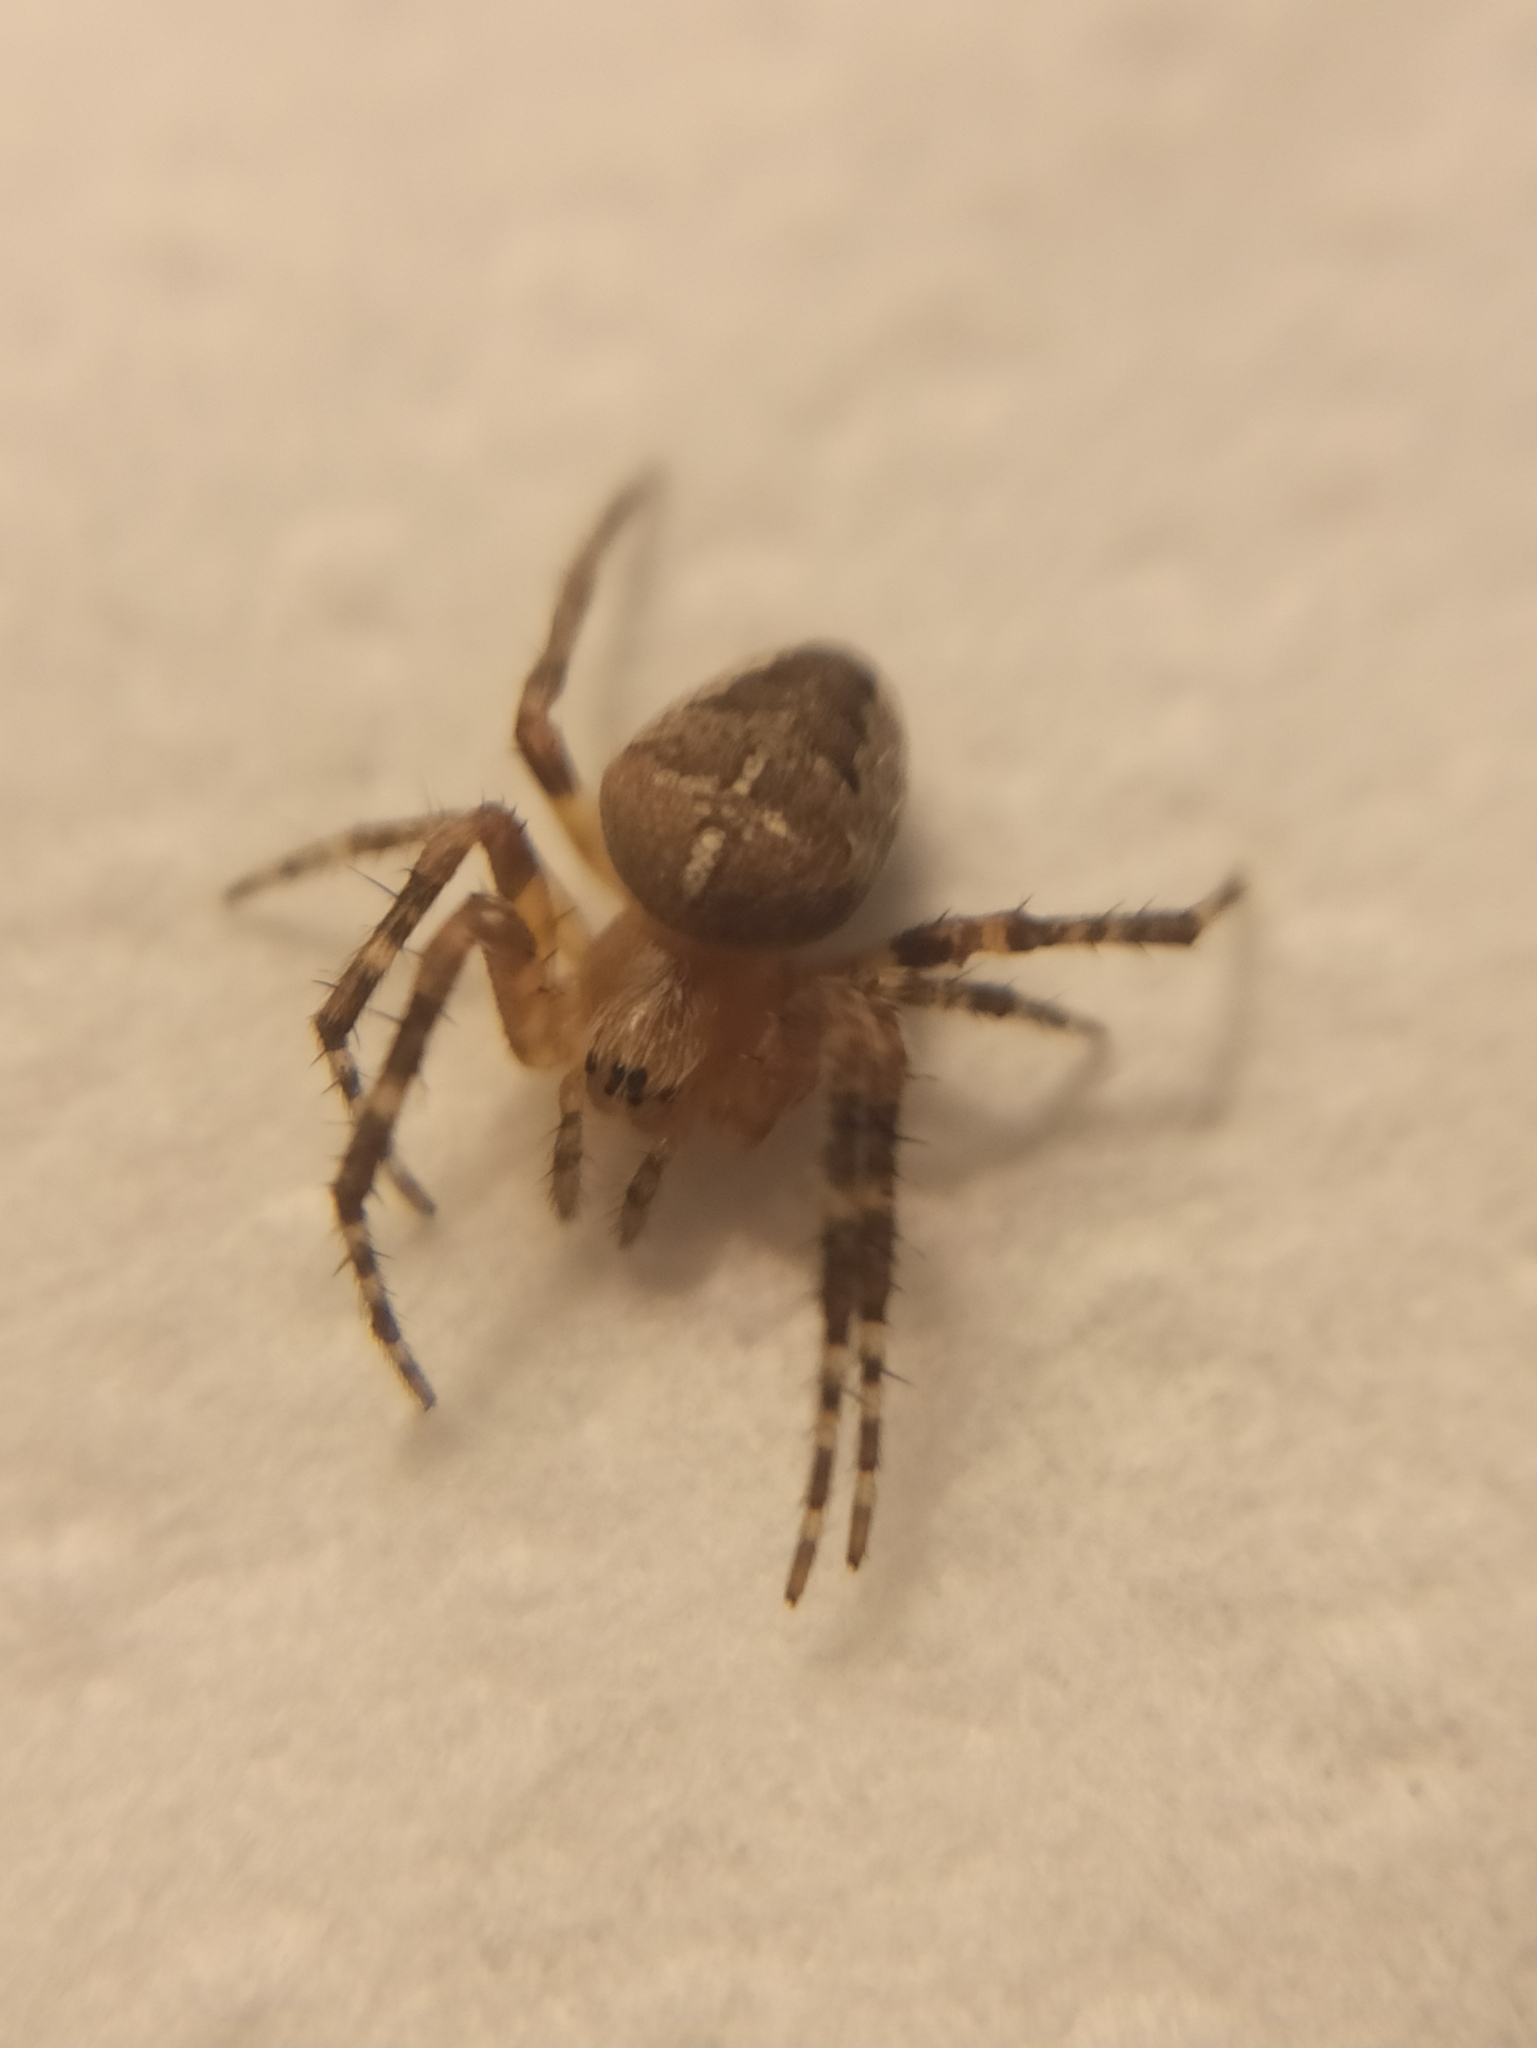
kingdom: Animalia
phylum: Arthropoda
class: Arachnida
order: Araneae
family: Araneidae
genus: Araneus
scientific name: Araneus diadematus
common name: Cross orbweaver
